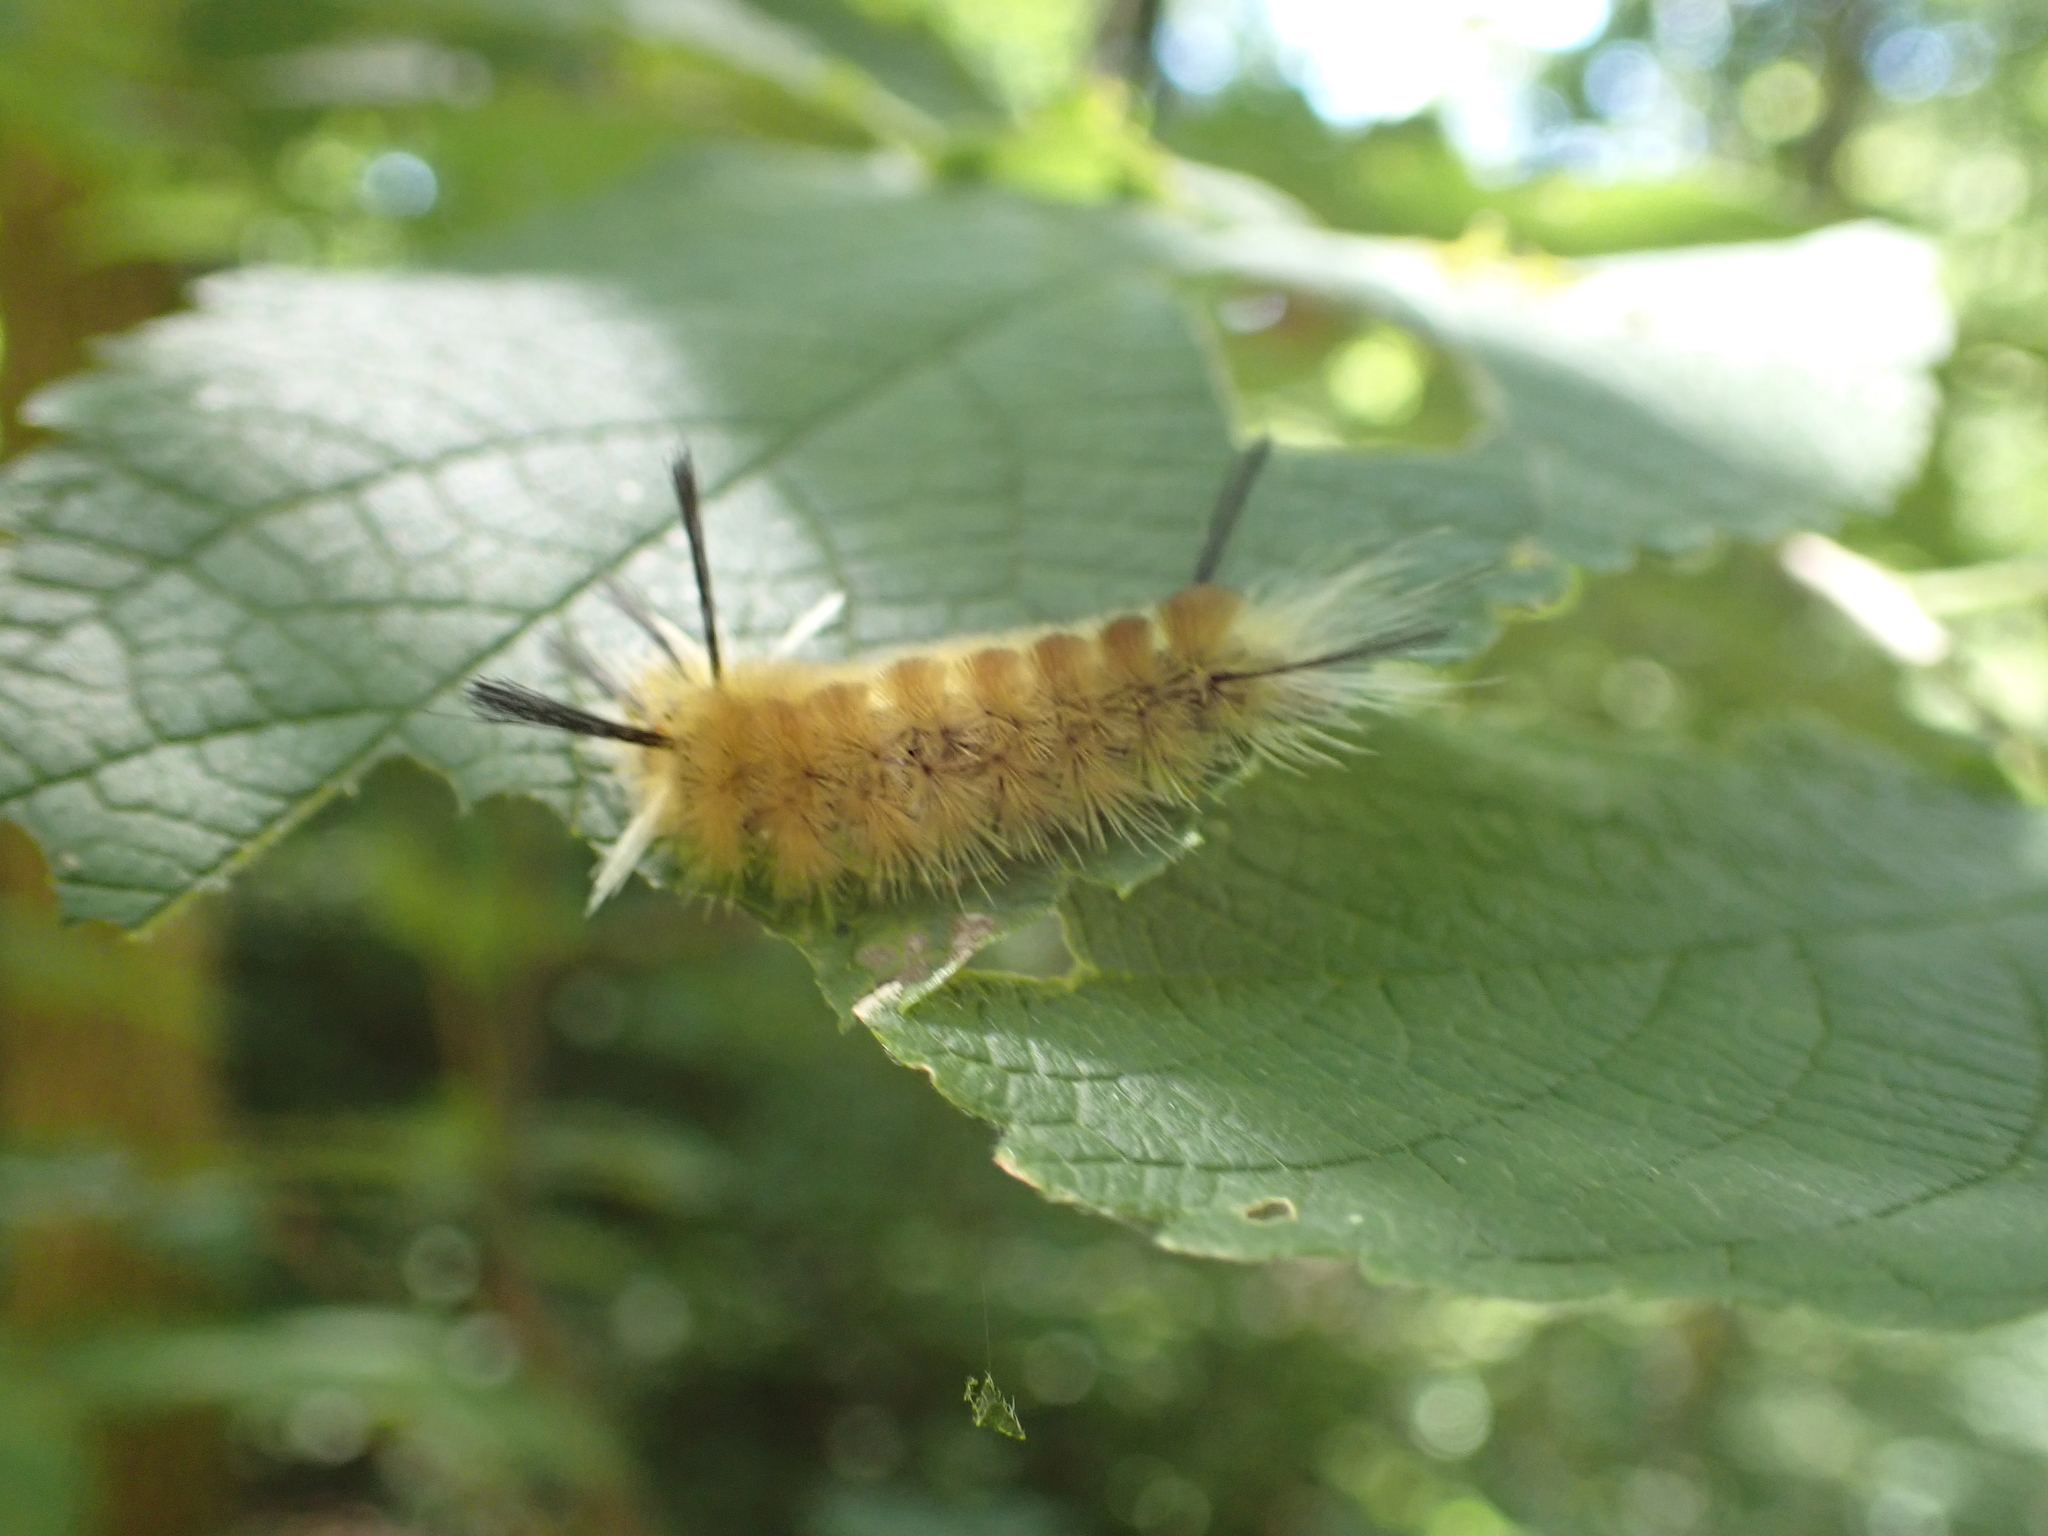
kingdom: Animalia
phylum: Arthropoda
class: Insecta
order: Lepidoptera
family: Erebidae
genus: Halysidota
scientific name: Halysidota tessellaris
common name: Banded tussock moth
